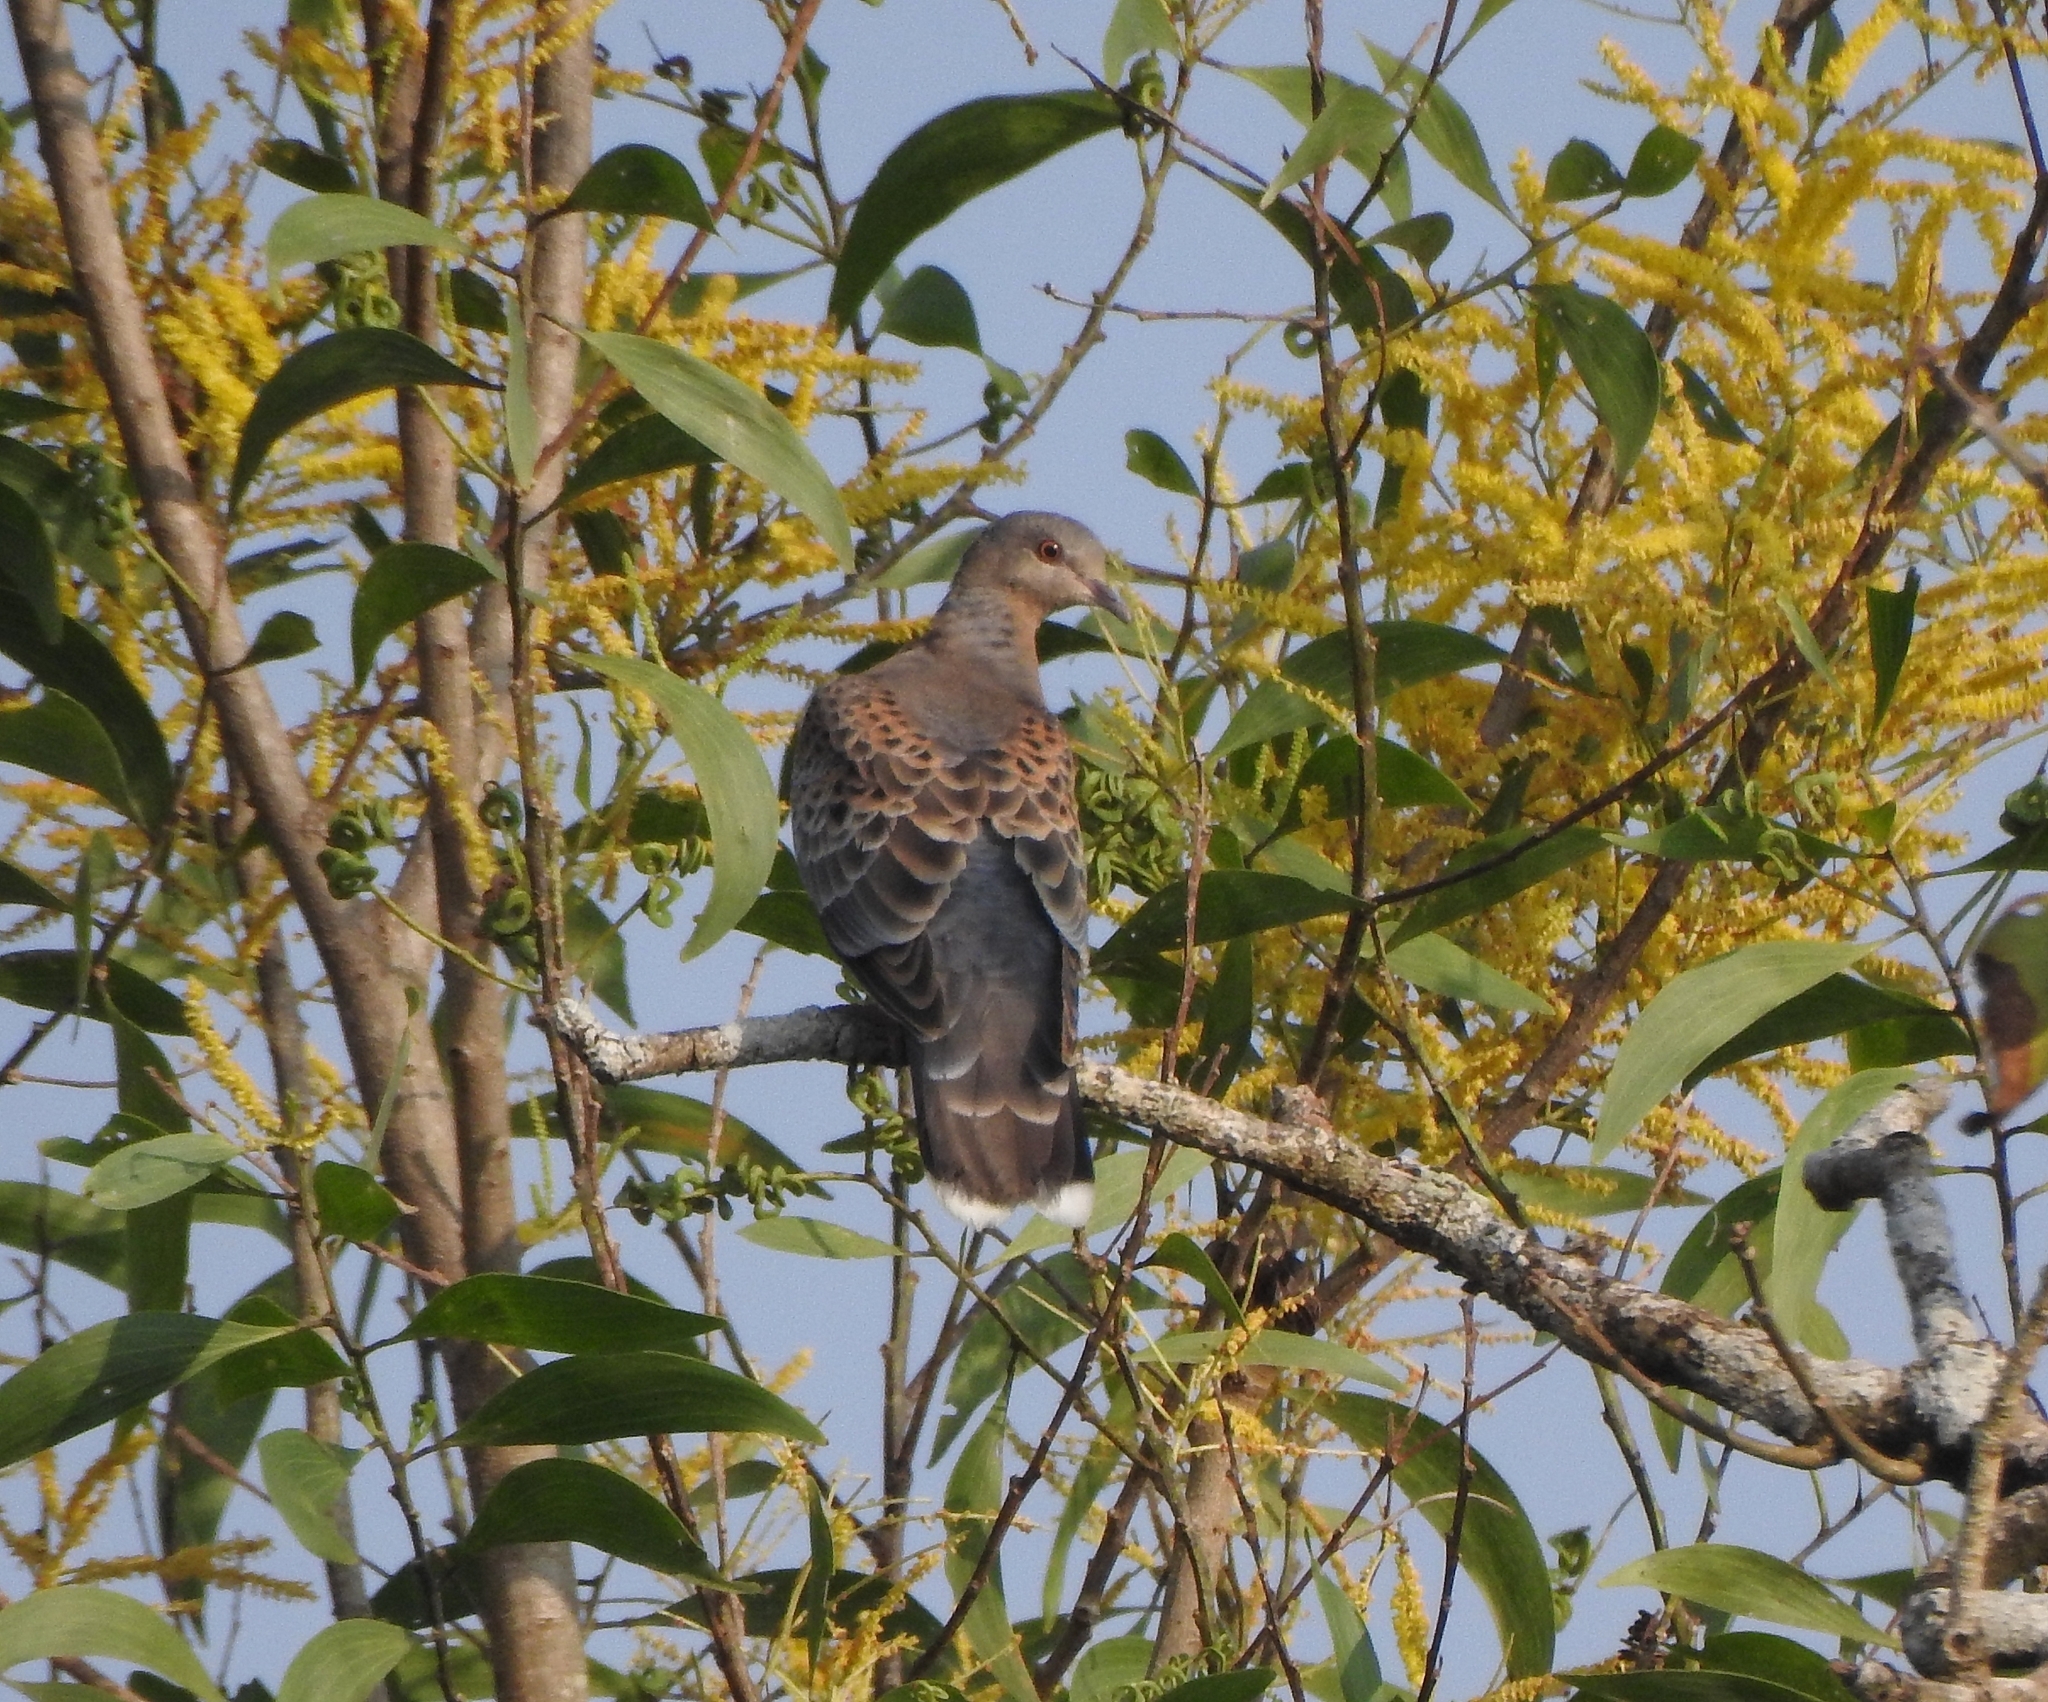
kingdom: Animalia
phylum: Chordata
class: Aves
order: Columbiformes
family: Columbidae
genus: Streptopelia
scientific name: Streptopelia orientalis
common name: Oriental turtle dove
